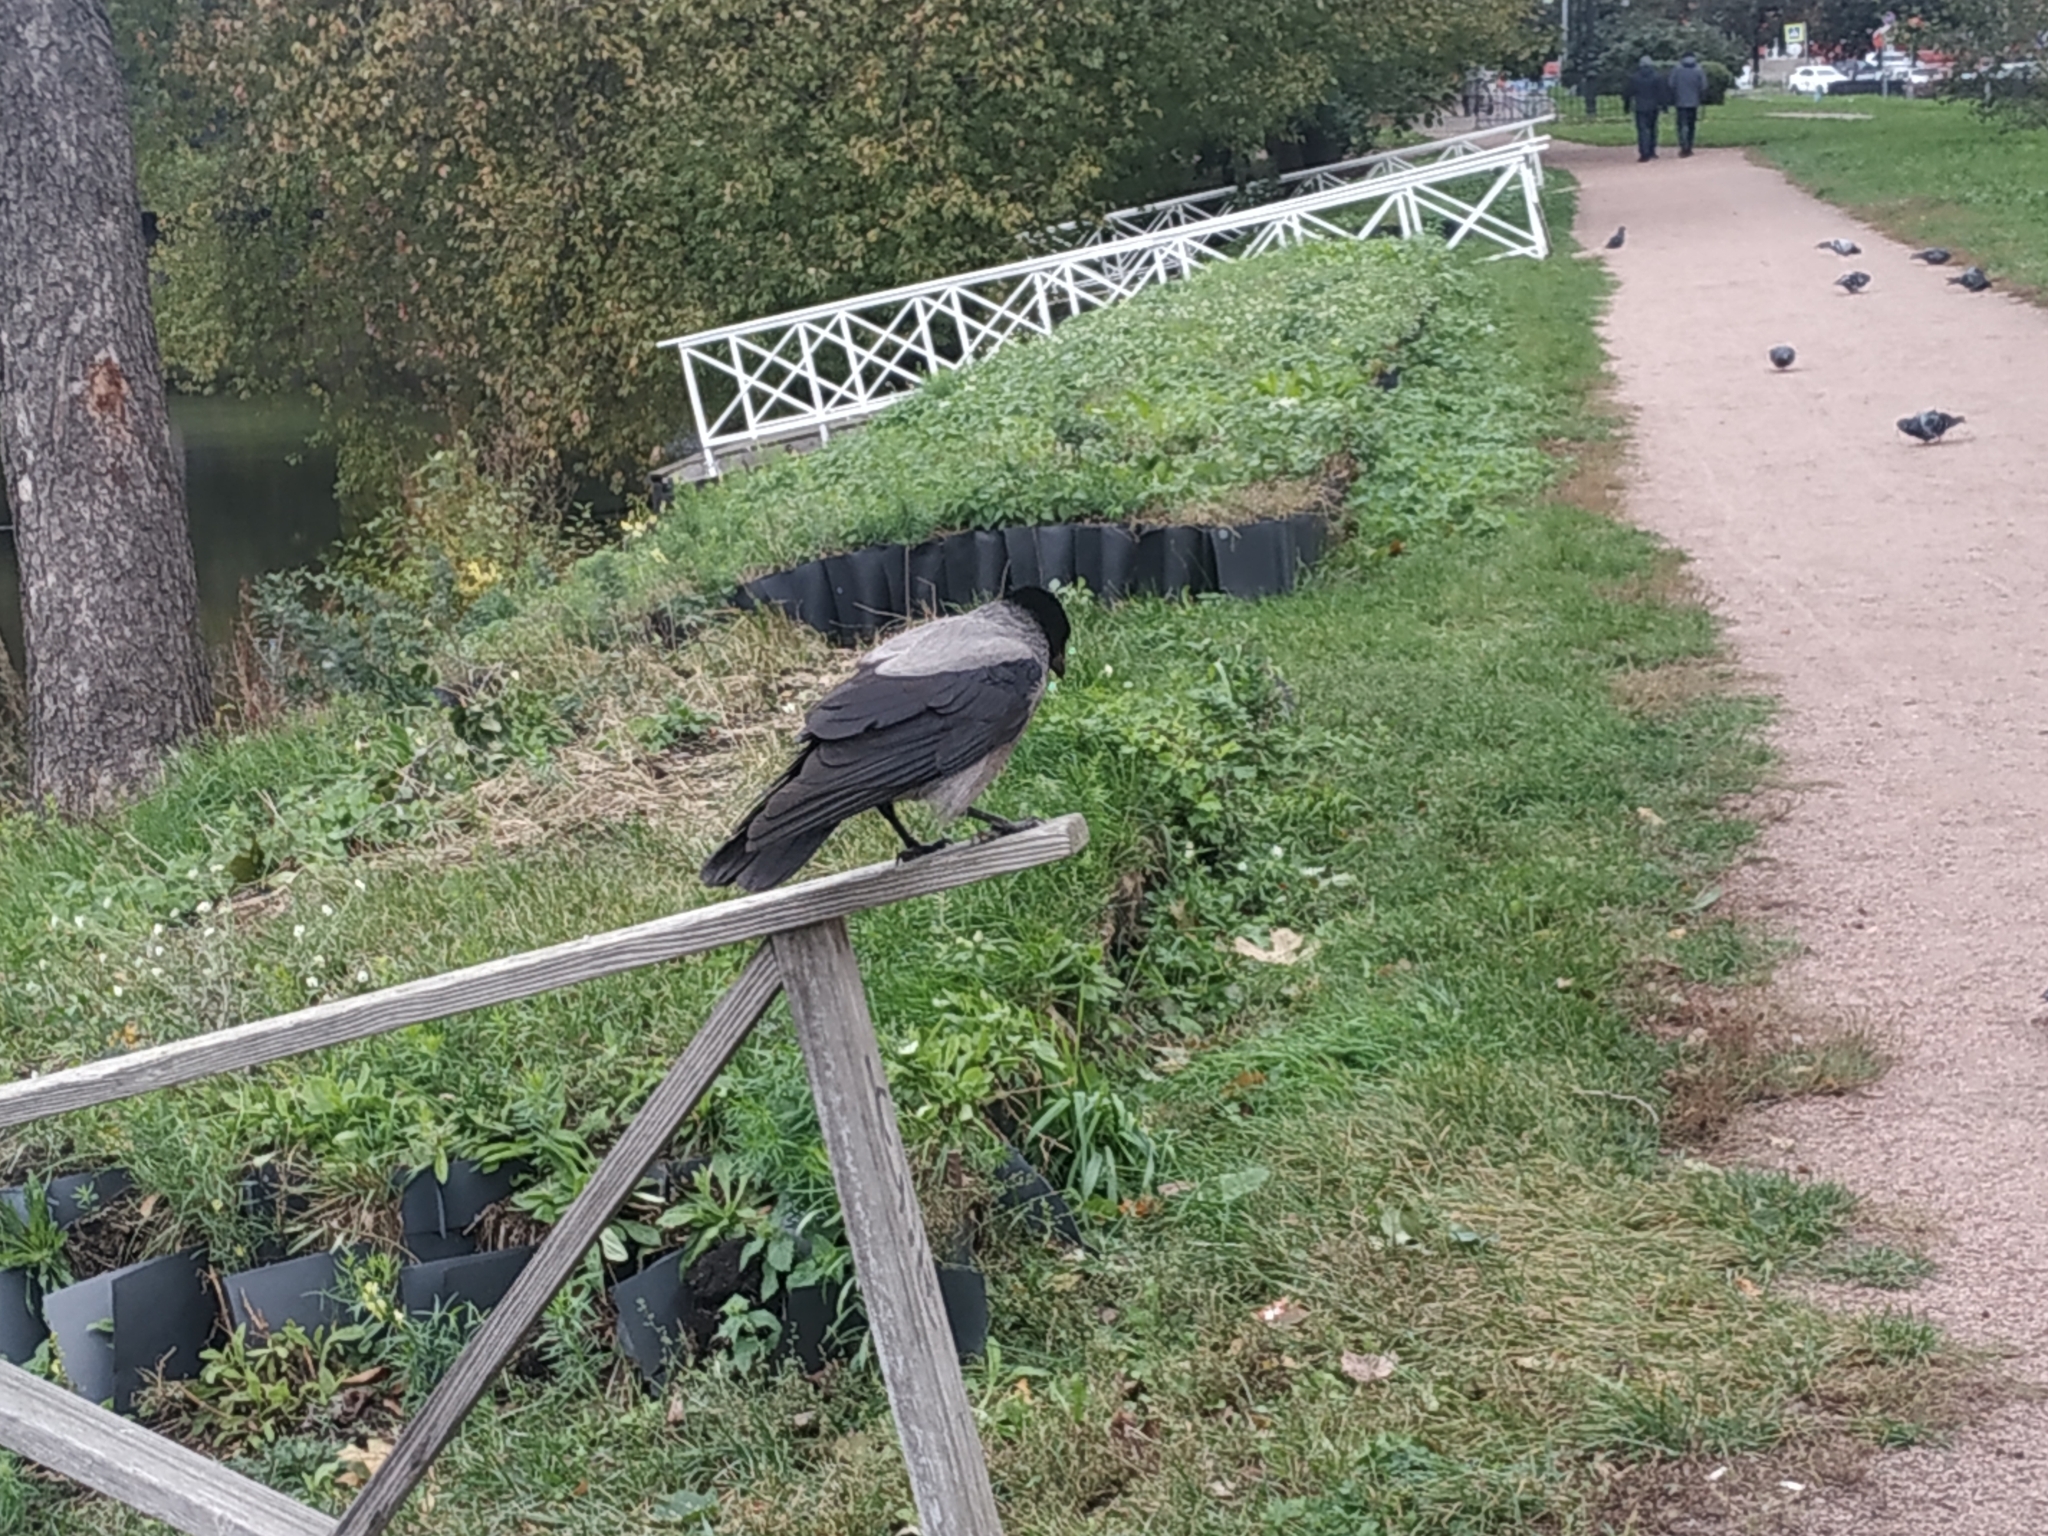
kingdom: Animalia
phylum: Chordata
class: Aves
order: Passeriformes
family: Corvidae
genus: Corvus
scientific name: Corvus cornix
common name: Hooded crow
